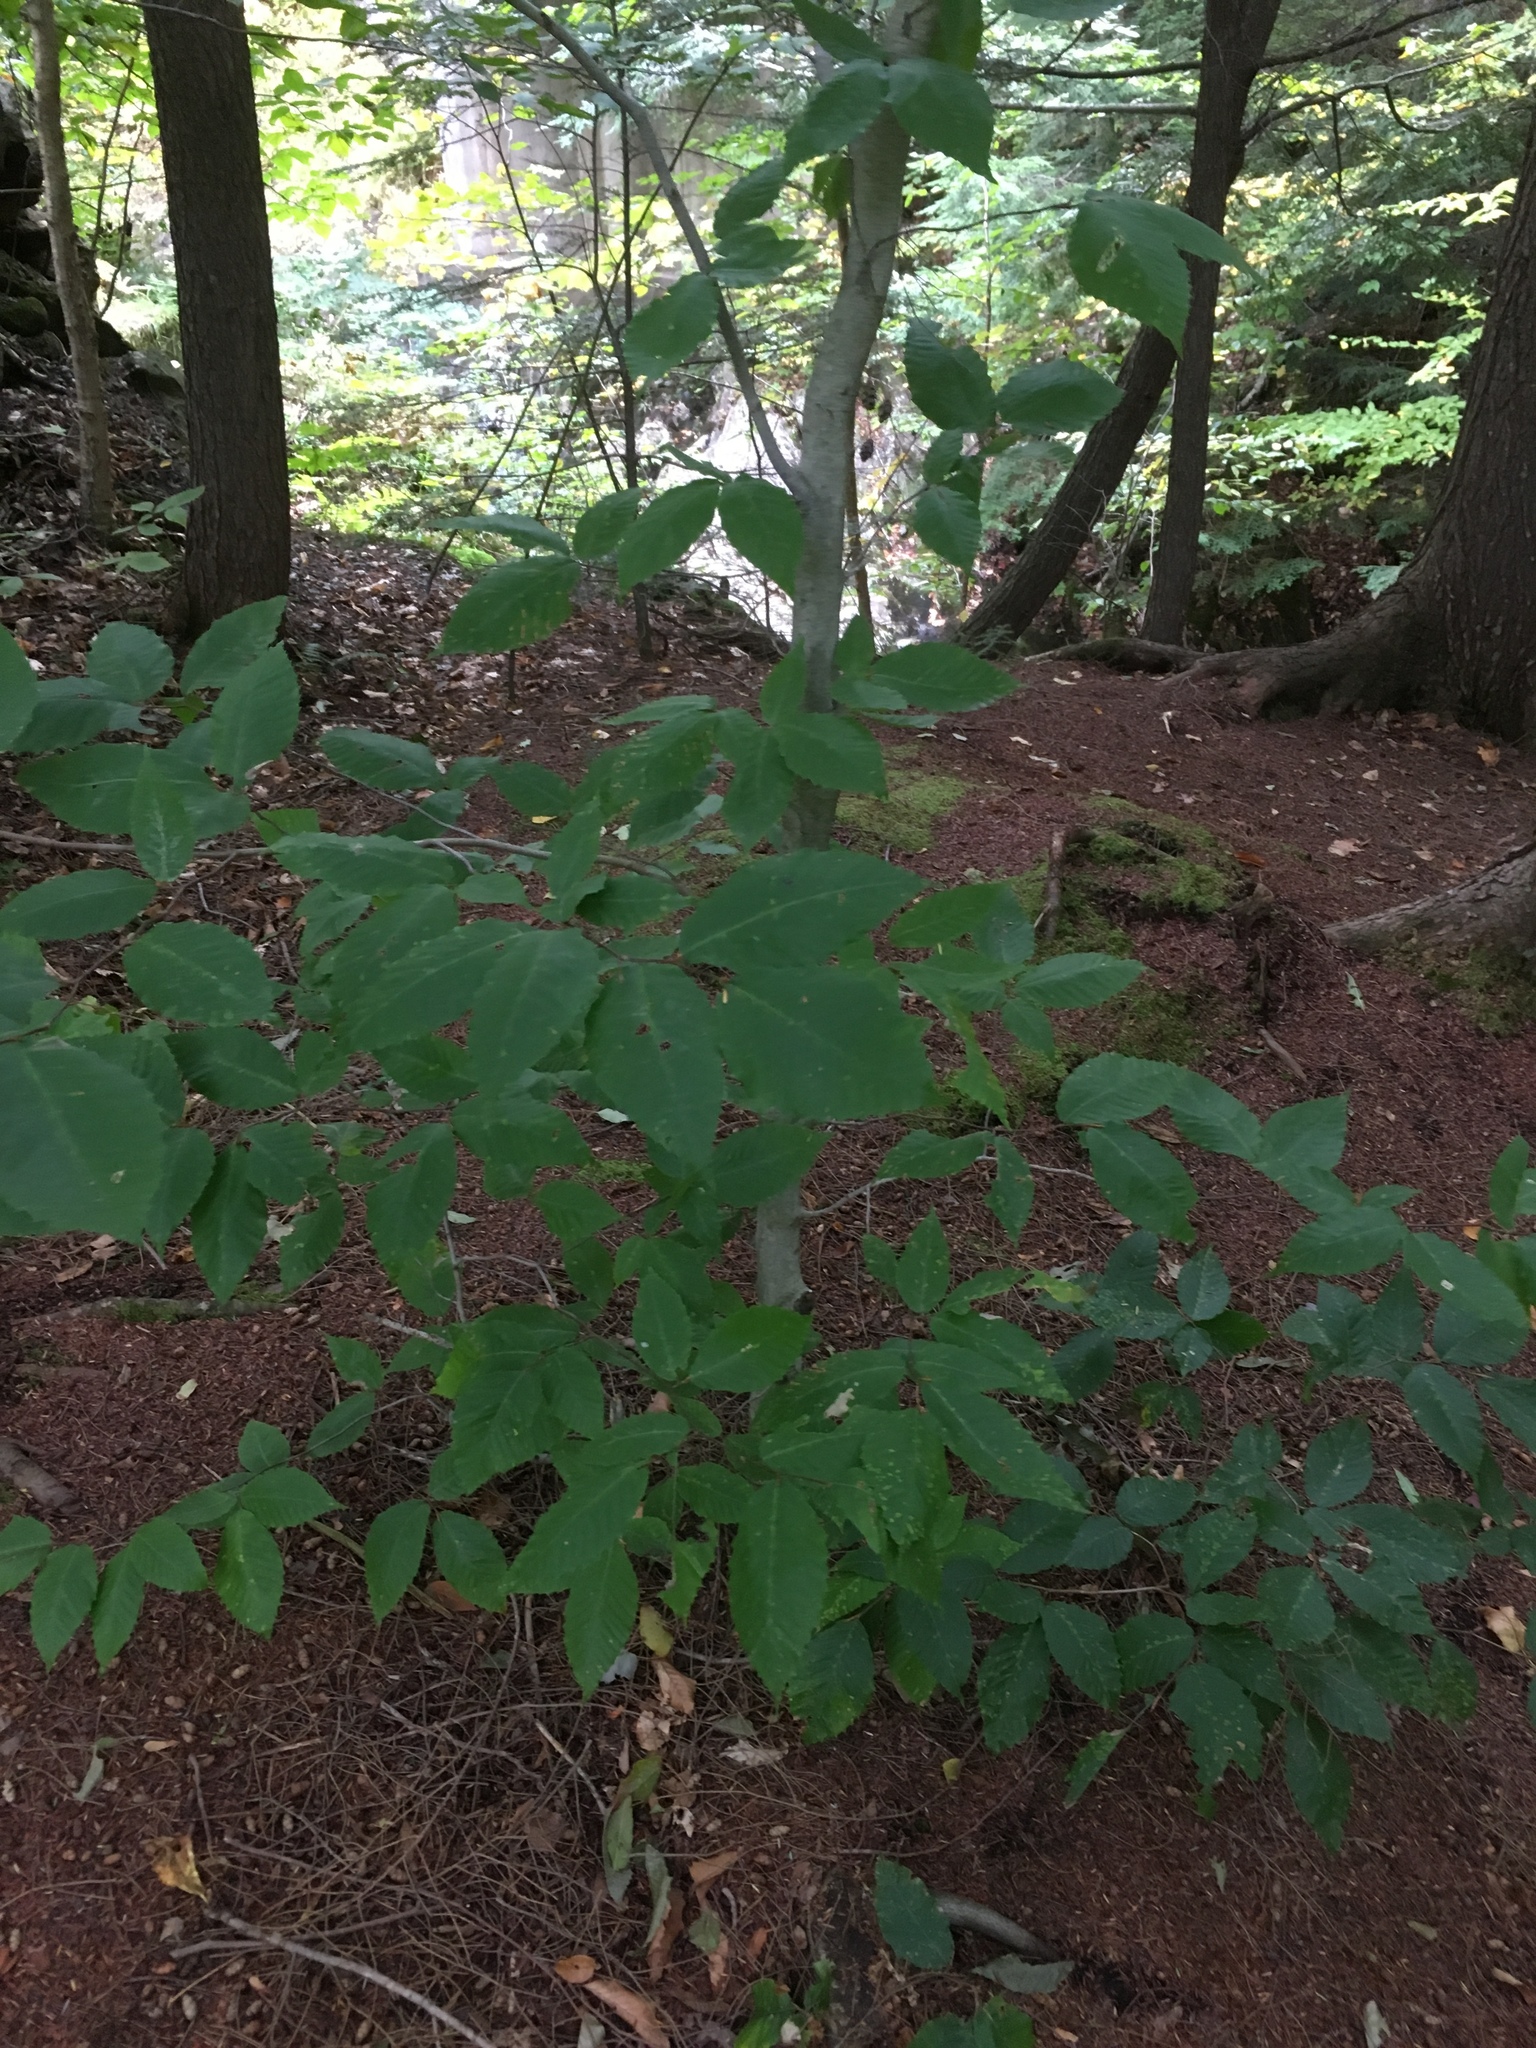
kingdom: Plantae
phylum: Tracheophyta
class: Magnoliopsida
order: Fagales
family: Fagaceae
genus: Fagus
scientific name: Fagus grandifolia
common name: American beech
